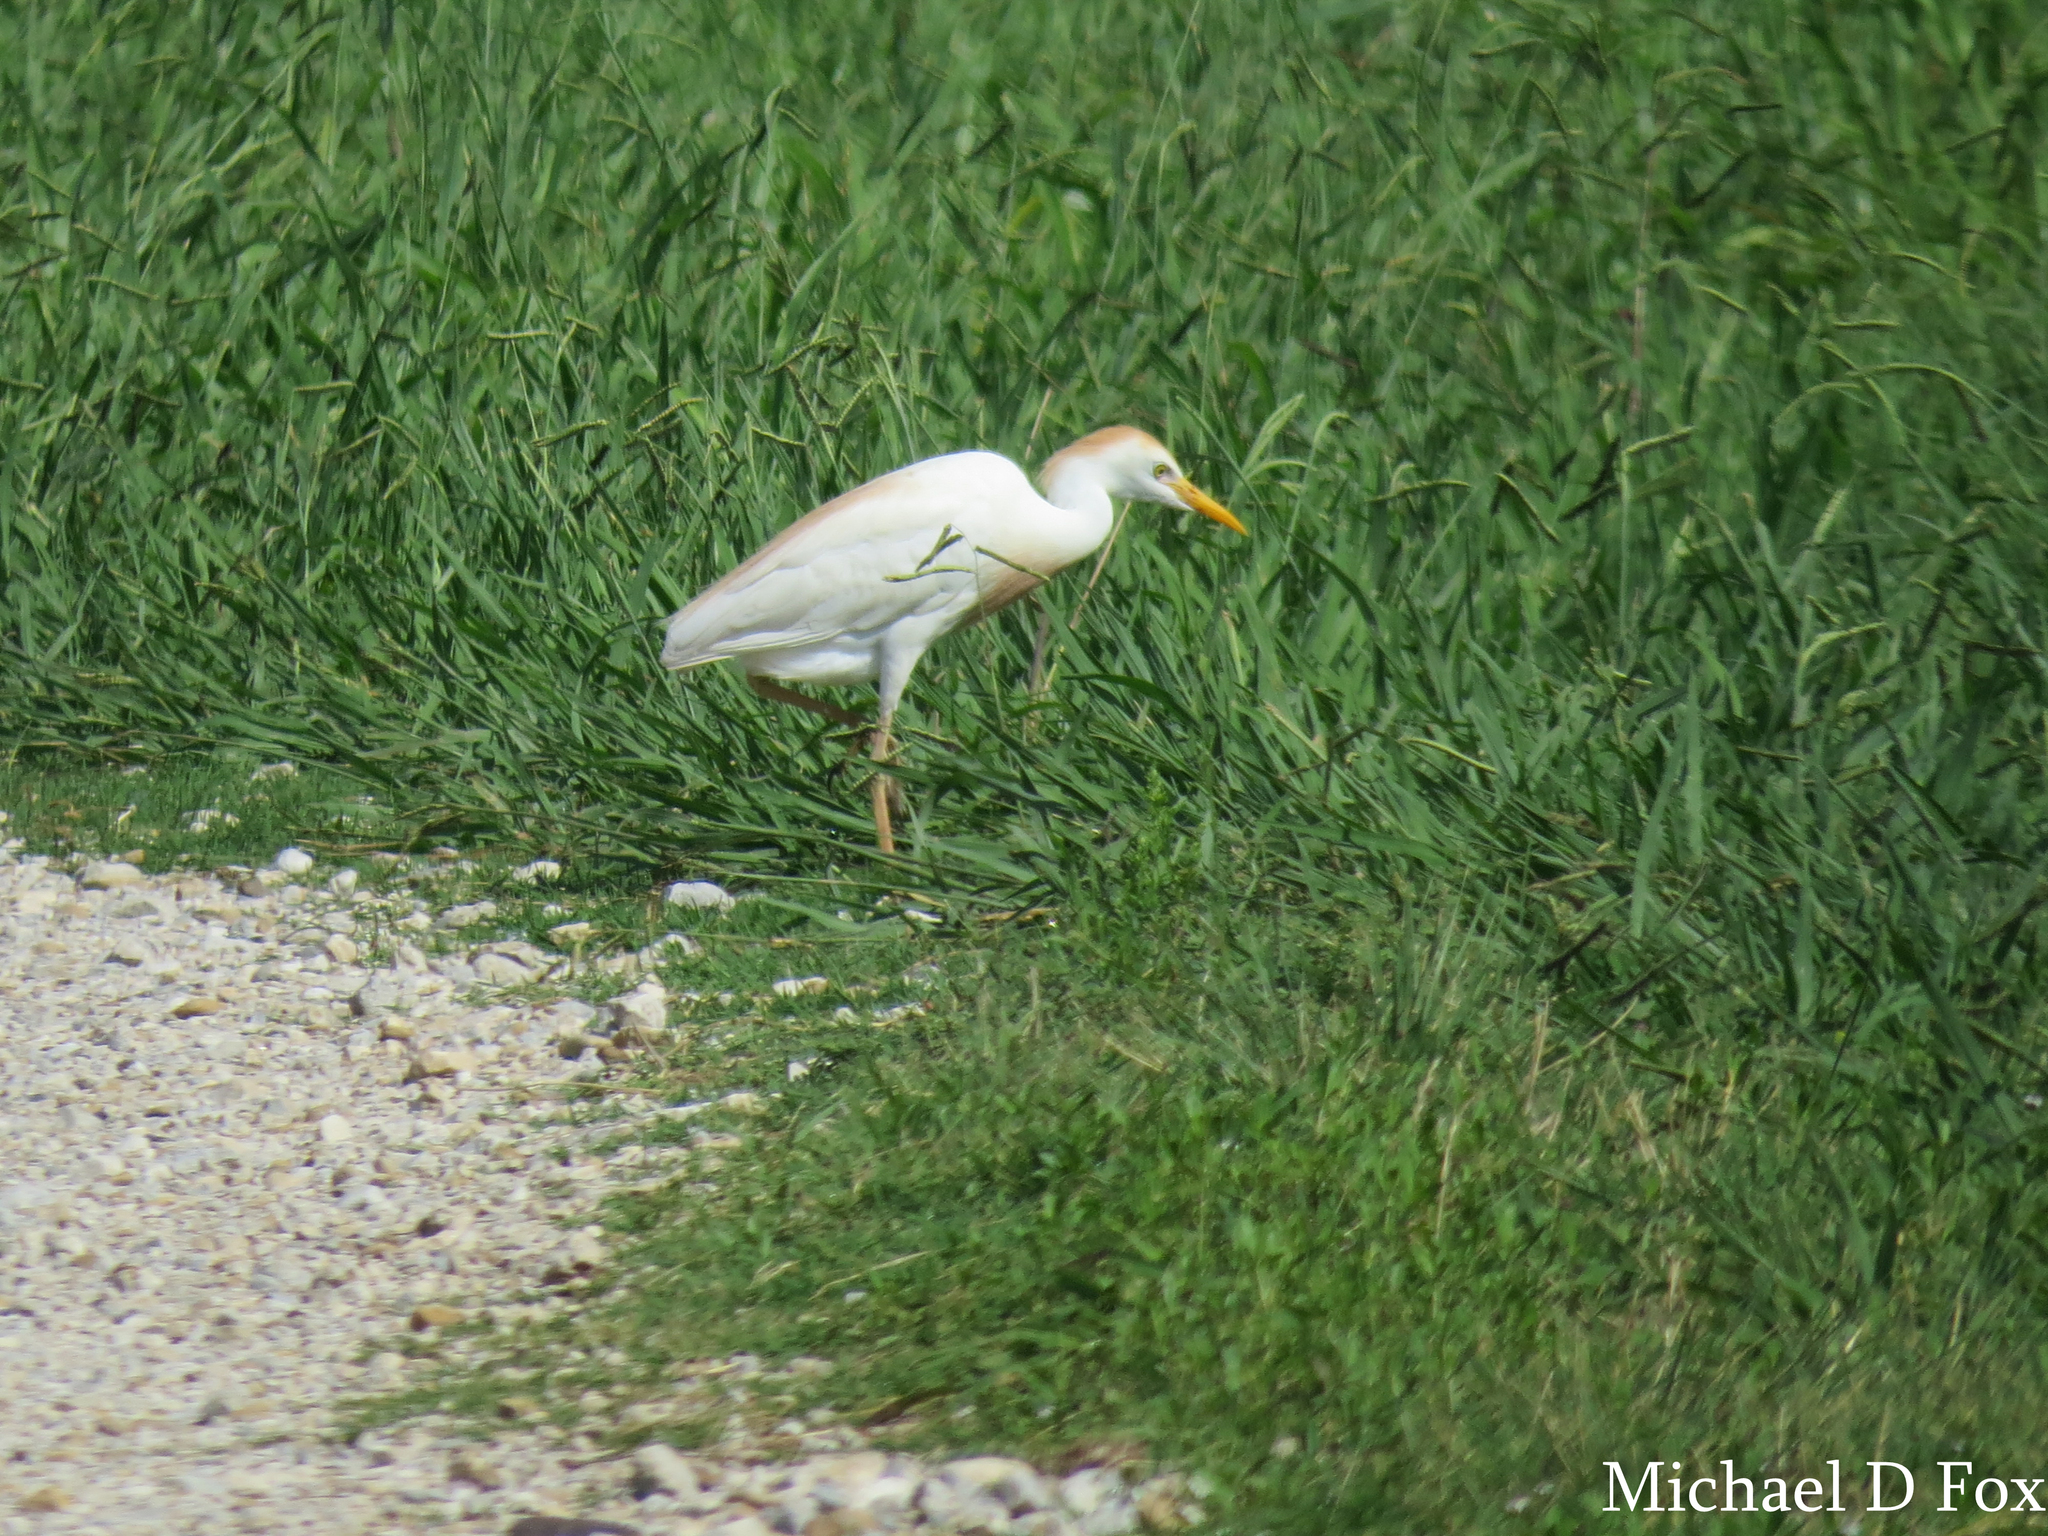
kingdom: Animalia
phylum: Chordata
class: Aves
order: Pelecaniformes
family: Ardeidae
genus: Bubulcus
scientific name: Bubulcus ibis
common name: Cattle egret
